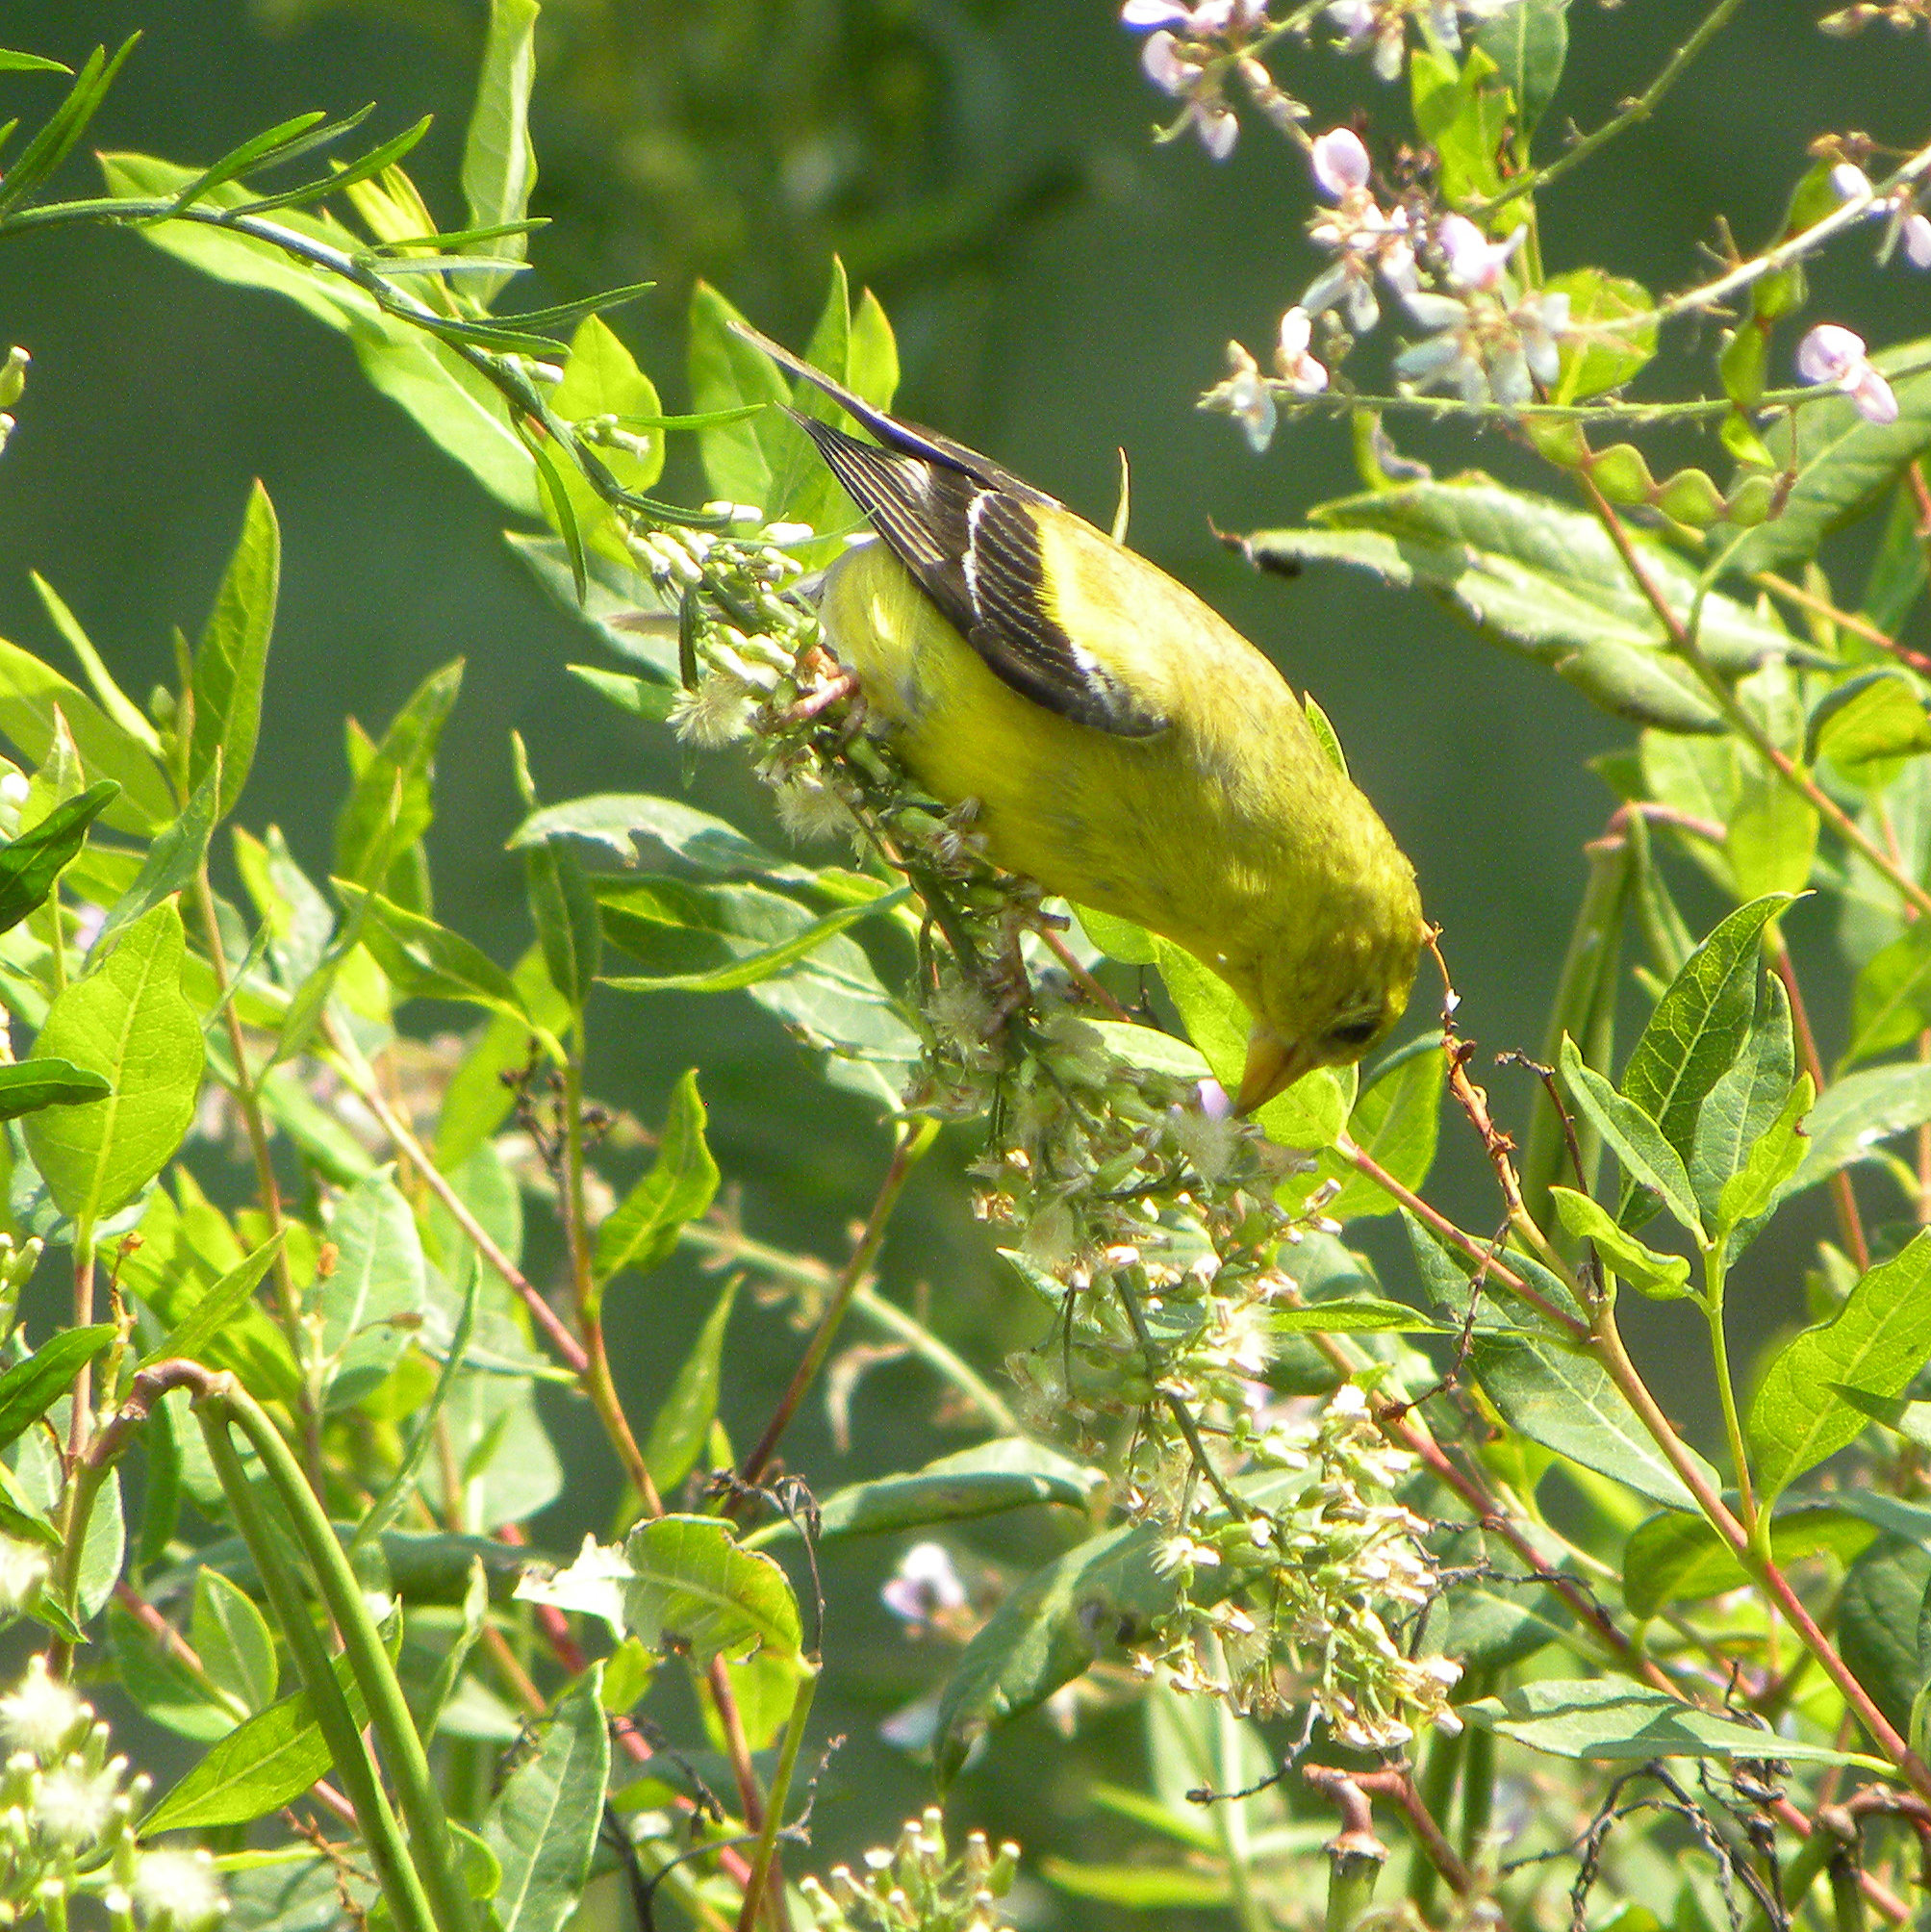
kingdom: Plantae
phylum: Tracheophyta
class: Magnoliopsida
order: Asterales
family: Asteraceae
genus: Erigeron
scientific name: Erigeron canadensis
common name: Canadian fleabane
